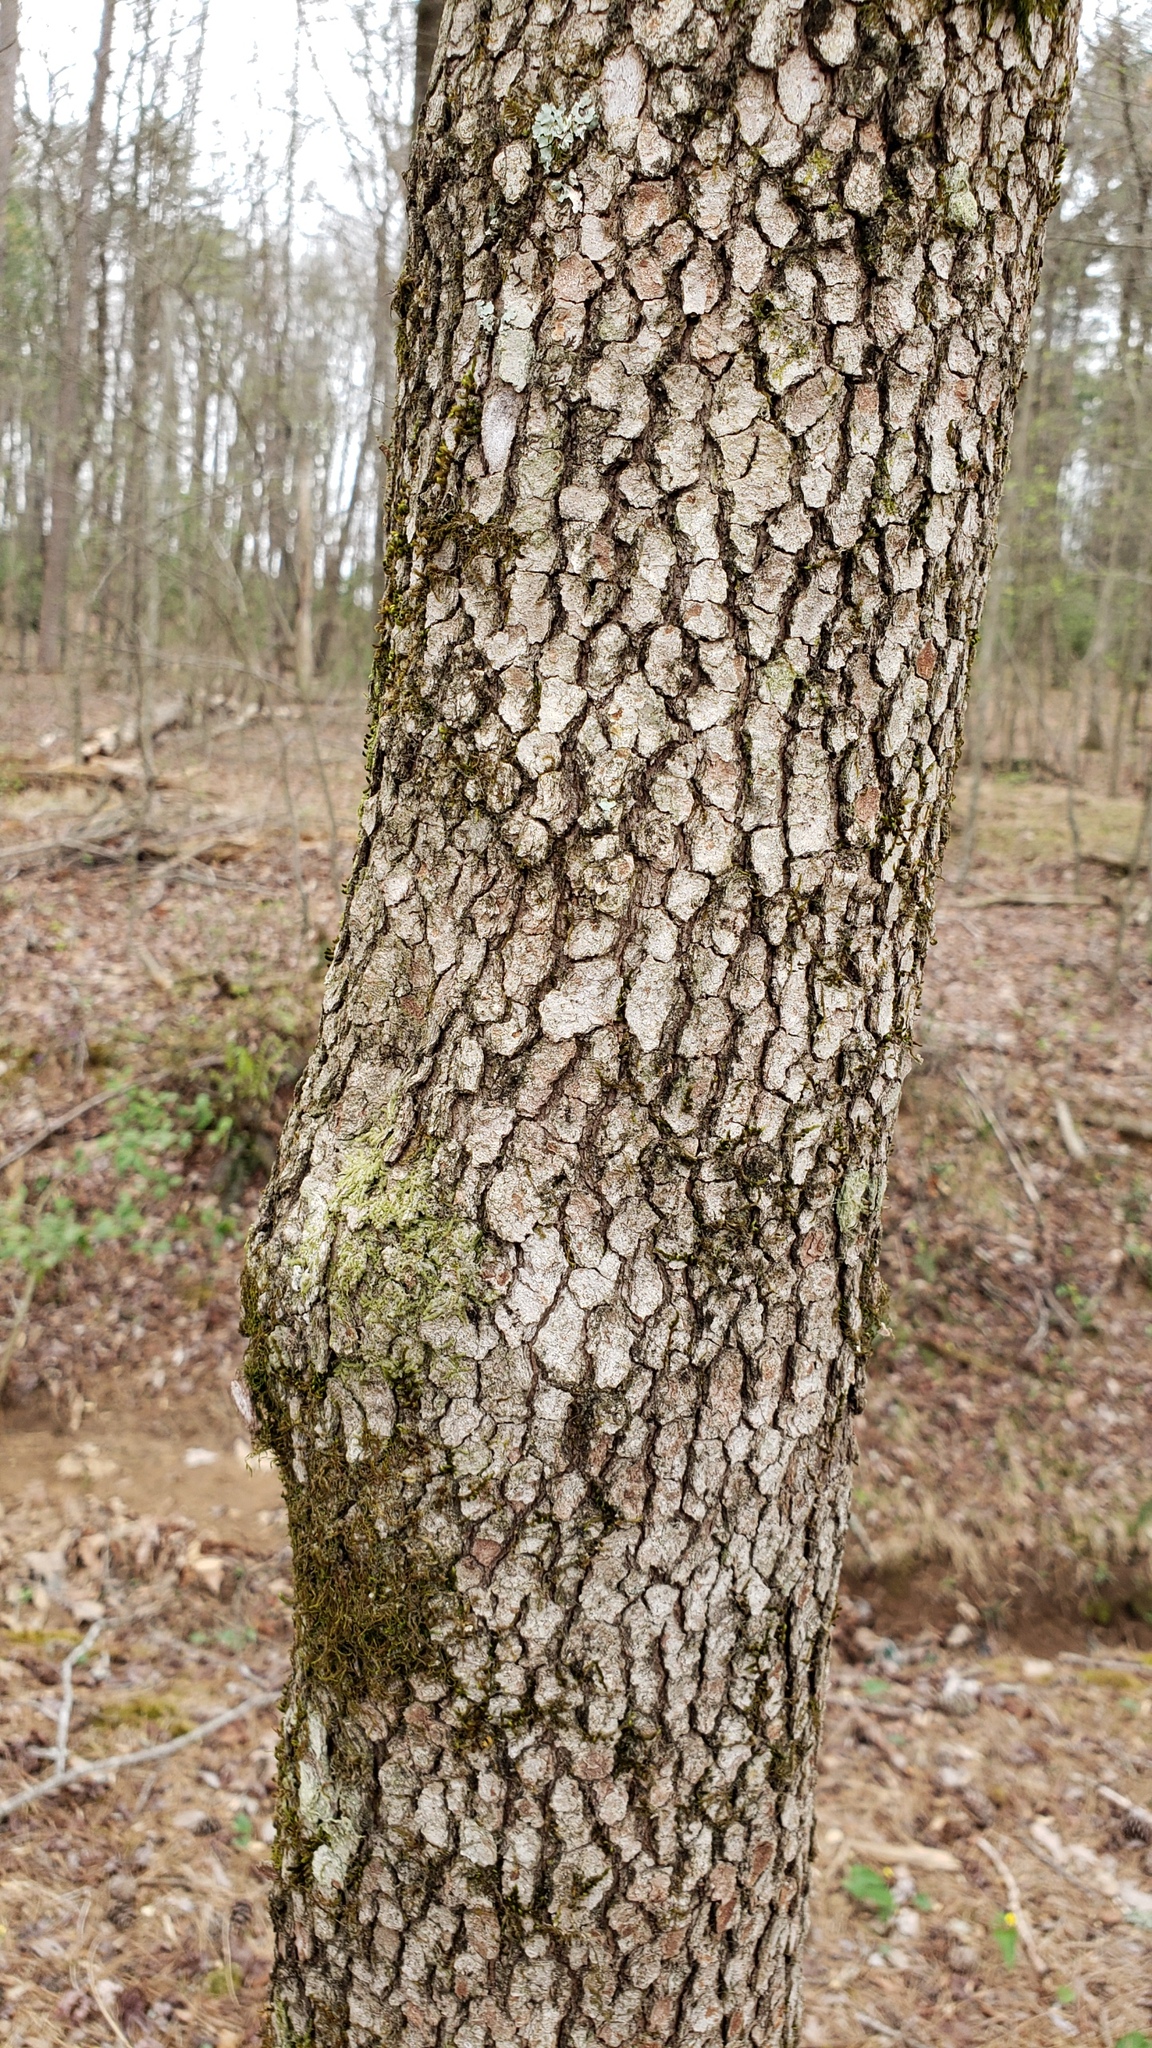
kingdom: Plantae
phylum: Tracheophyta
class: Magnoliopsida
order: Cornales
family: Cornaceae
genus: Cornus
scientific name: Cornus florida
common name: Flowering dogwood
